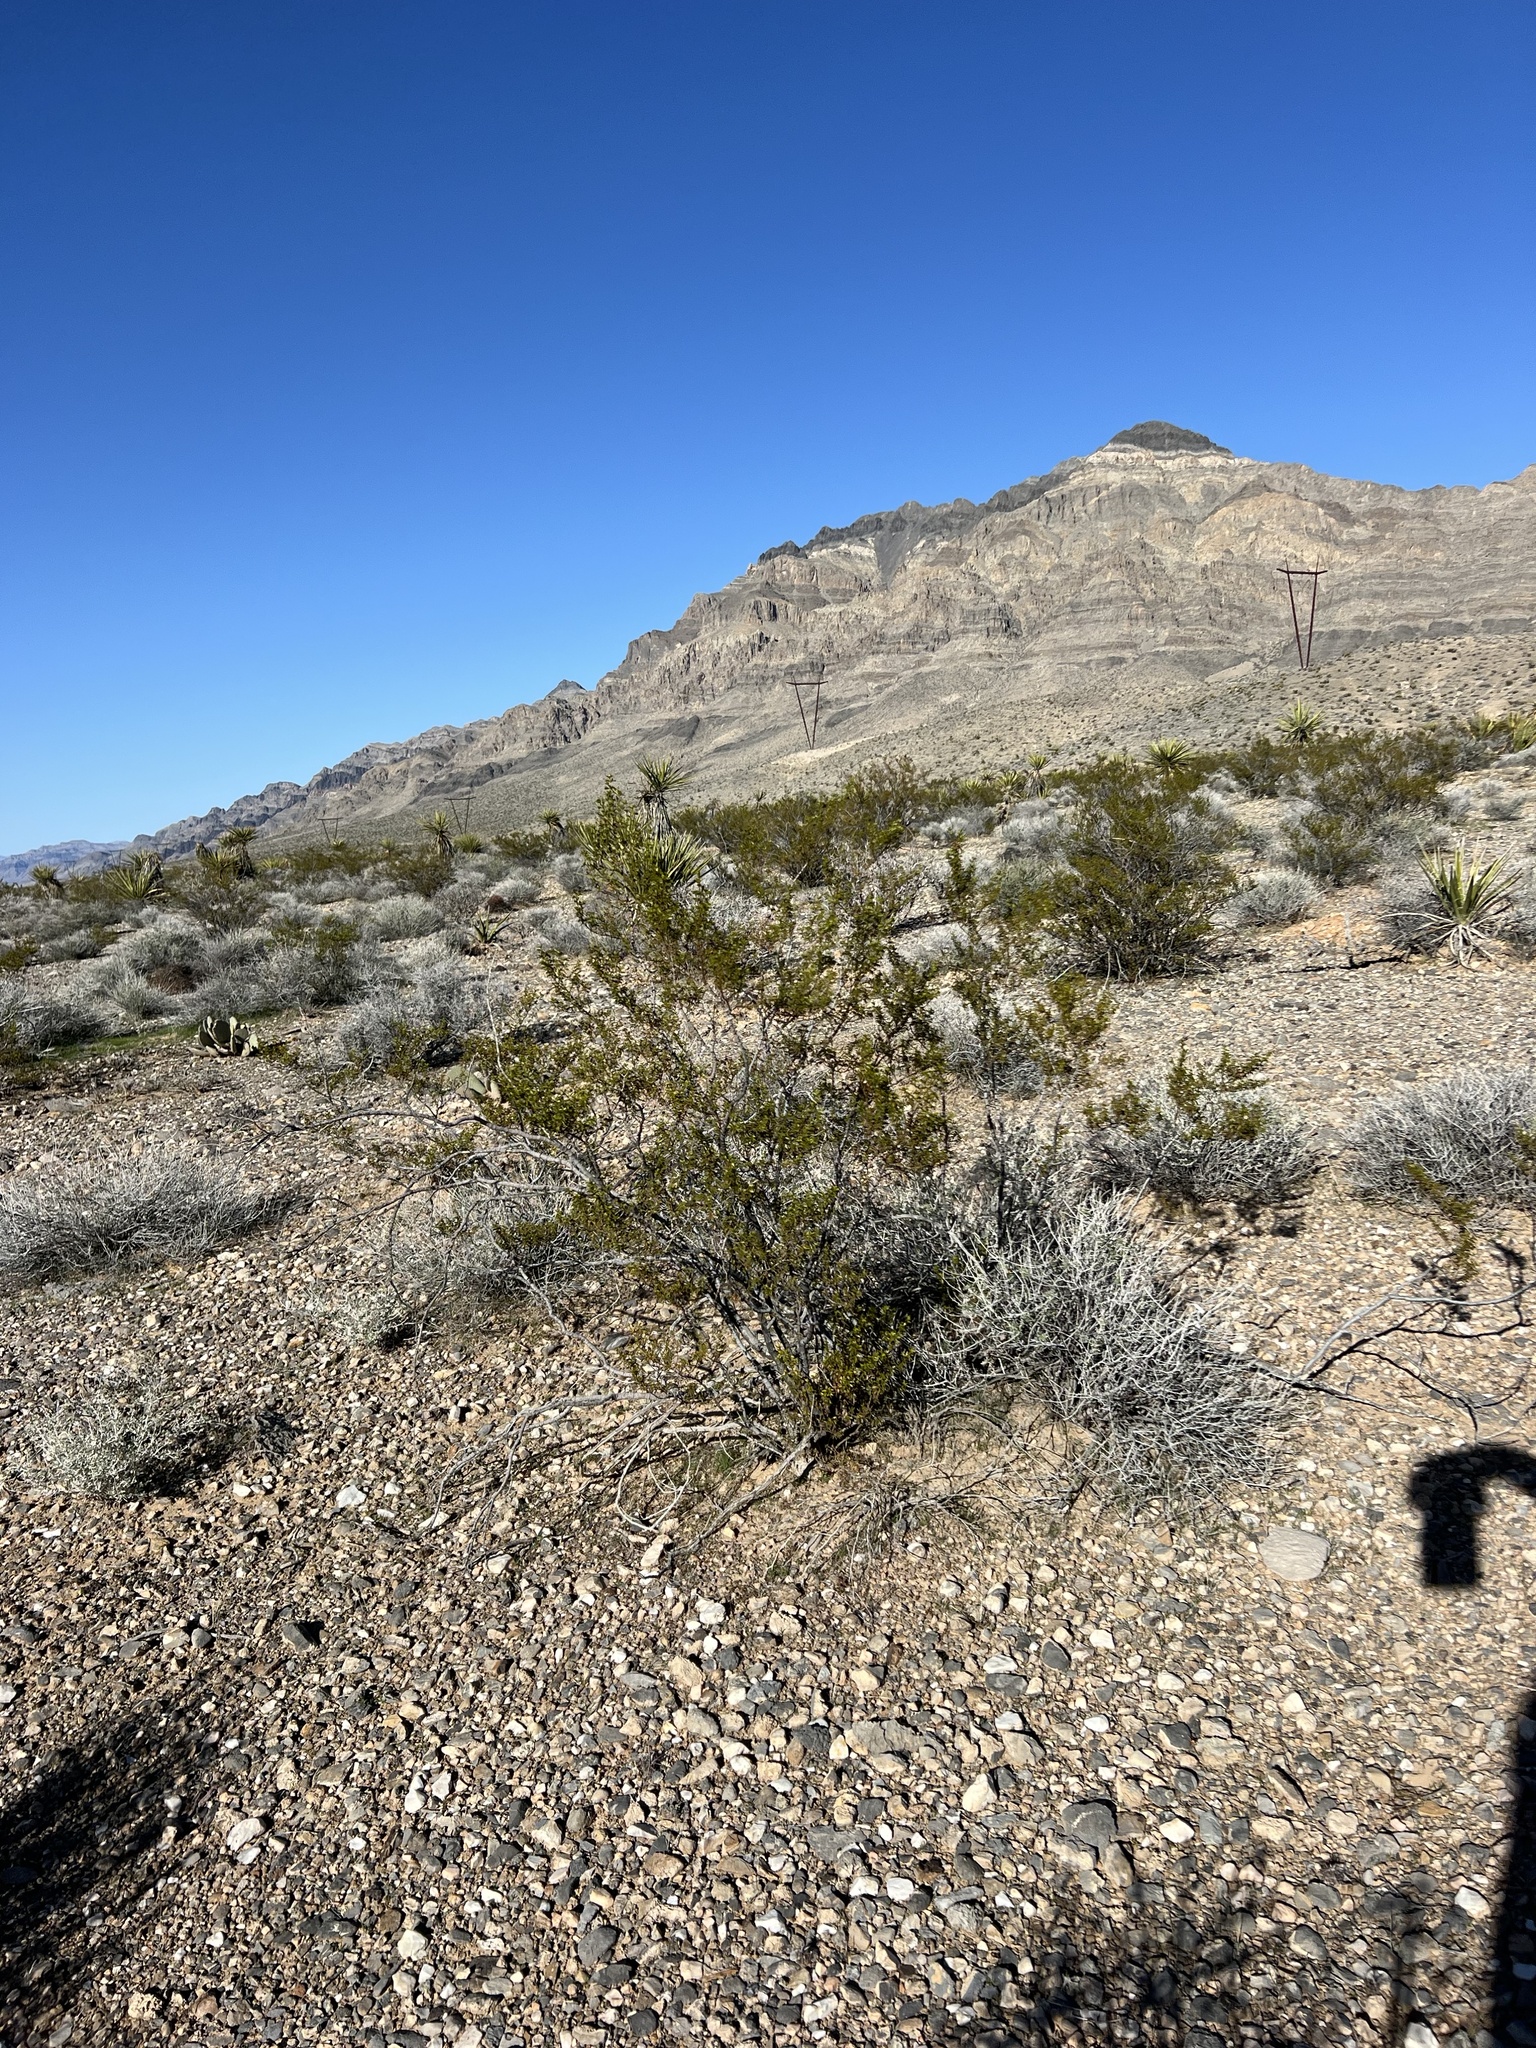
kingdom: Plantae
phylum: Tracheophyta
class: Magnoliopsida
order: Zygophyllales
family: Zygophyllaceae
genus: Larrea
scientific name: Larrea tridentata
